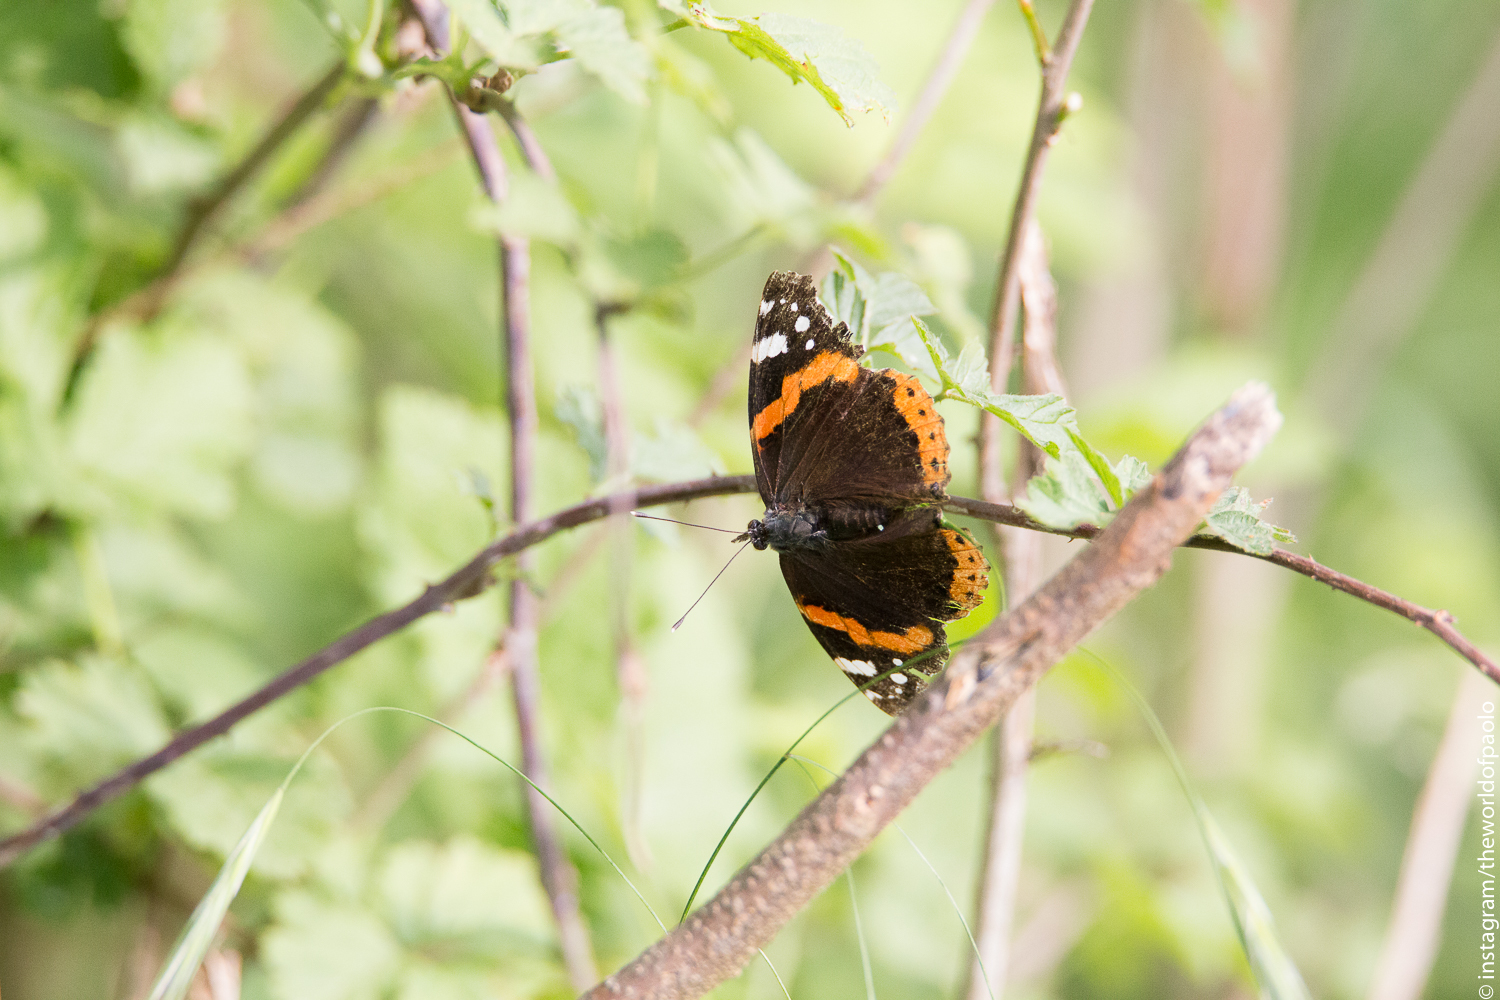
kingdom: Animalia
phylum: Arthropoda
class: Insecta
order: Lepidoptera
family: Nymphalidae
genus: Vanessa
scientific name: Vanessa atalanta
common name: Red admiral
